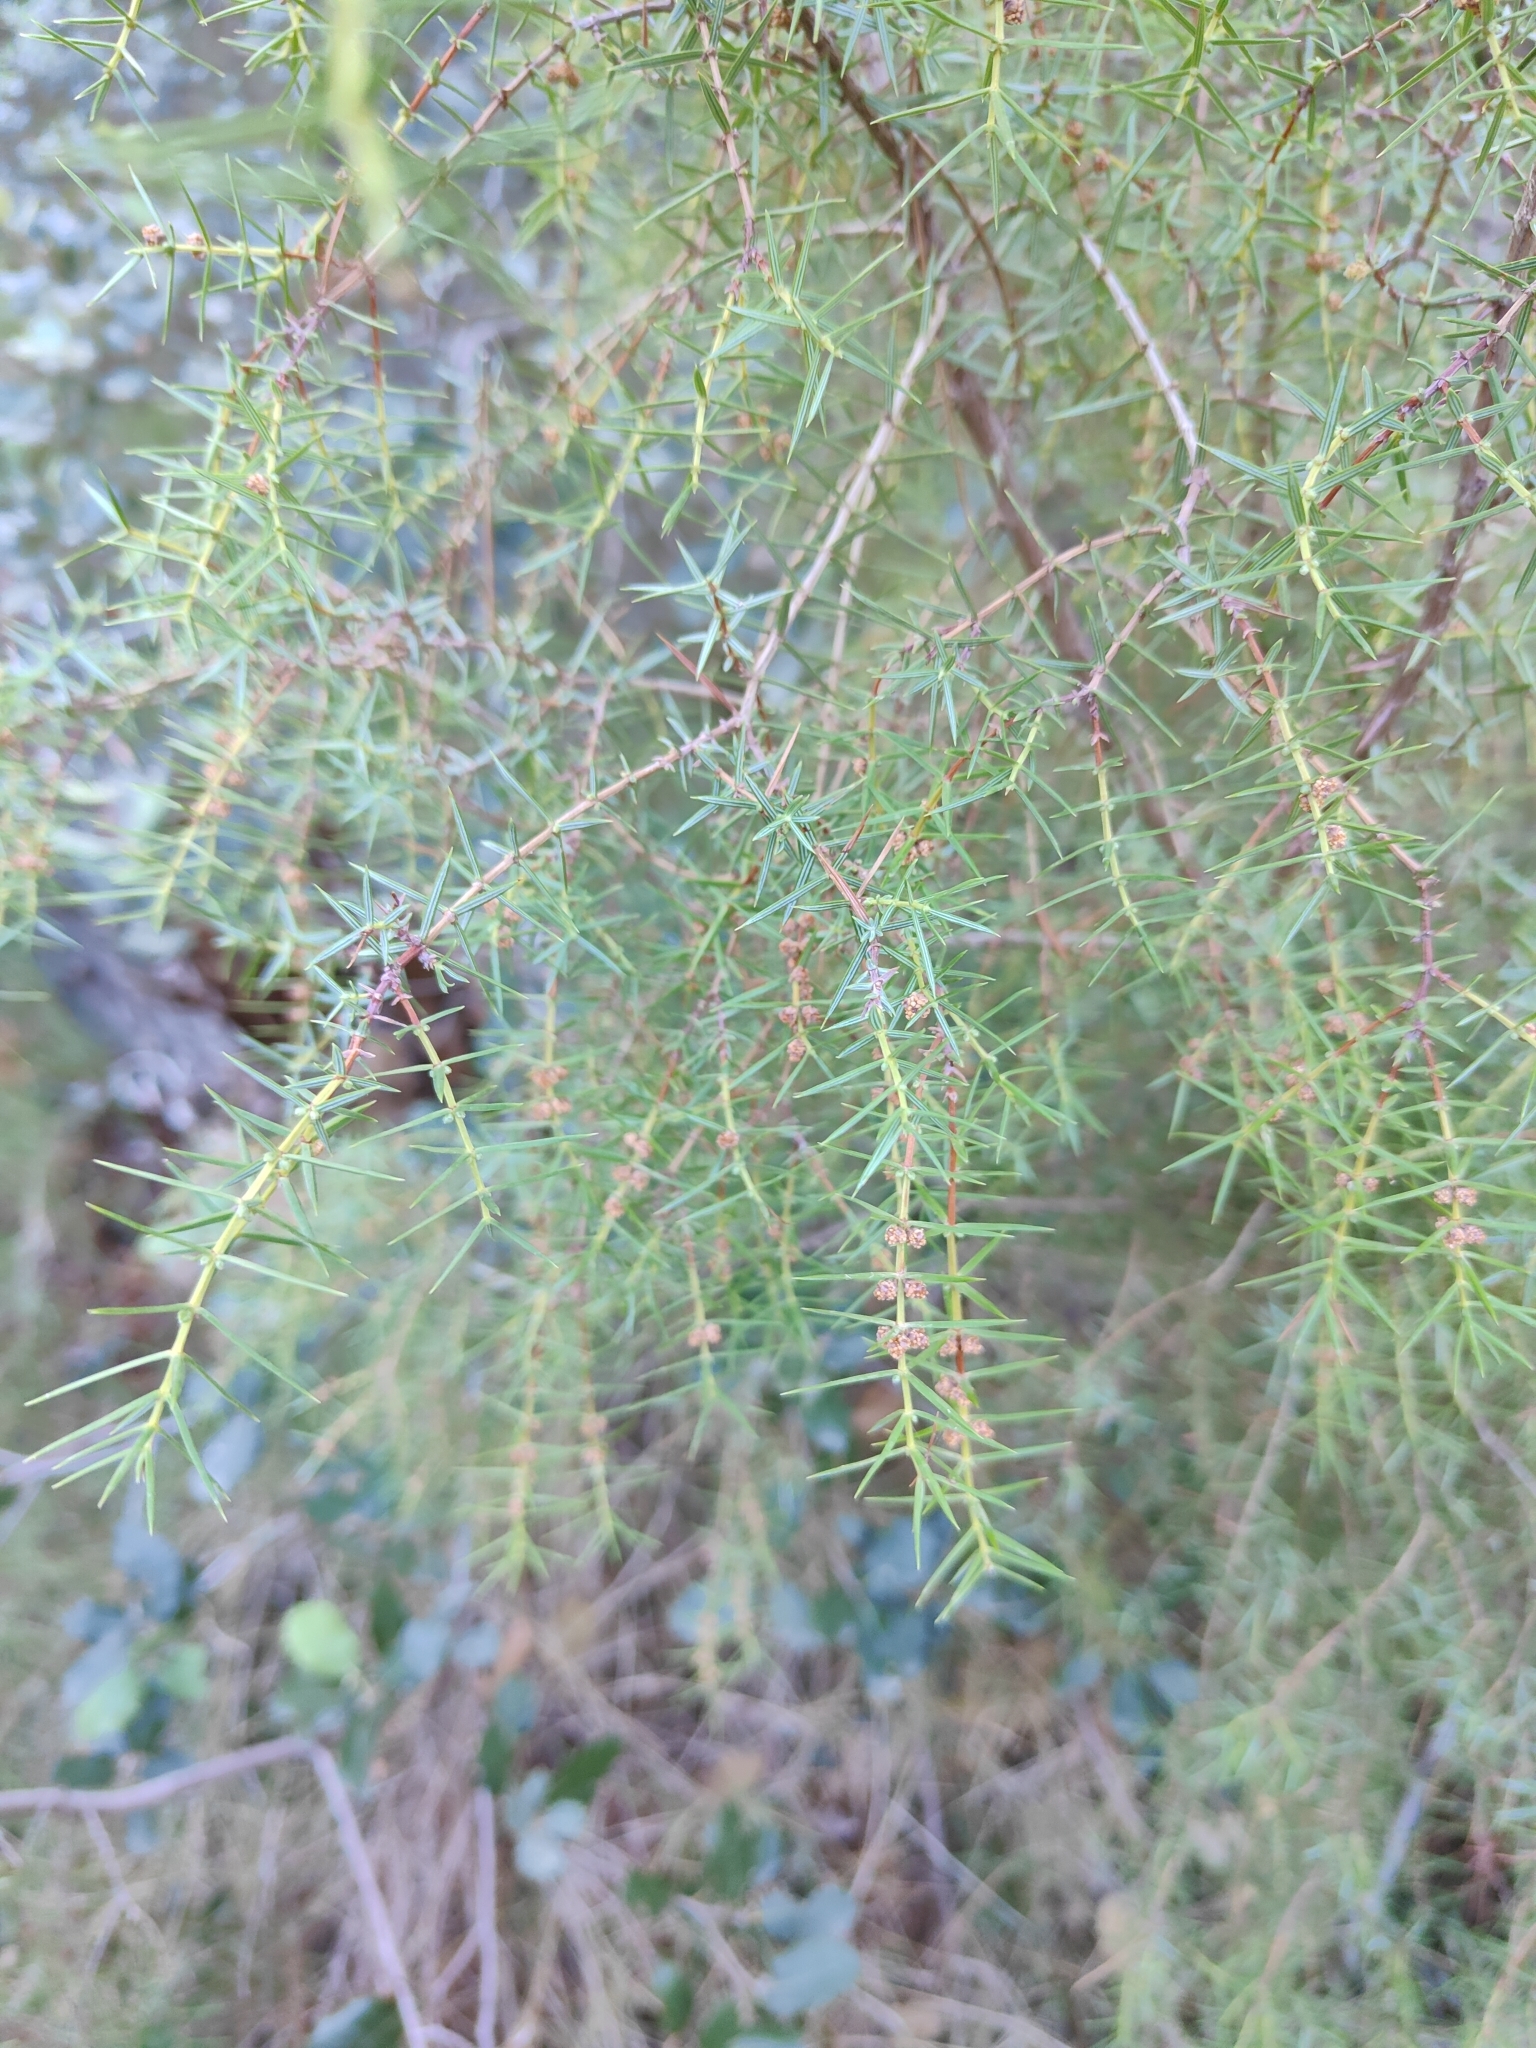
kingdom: Plantae
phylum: Tracheophyta
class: Pinopsida
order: Pinales
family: Cupressaceae
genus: Juniperus
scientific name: Juniperus oxycedrus
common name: Prickly juniper
